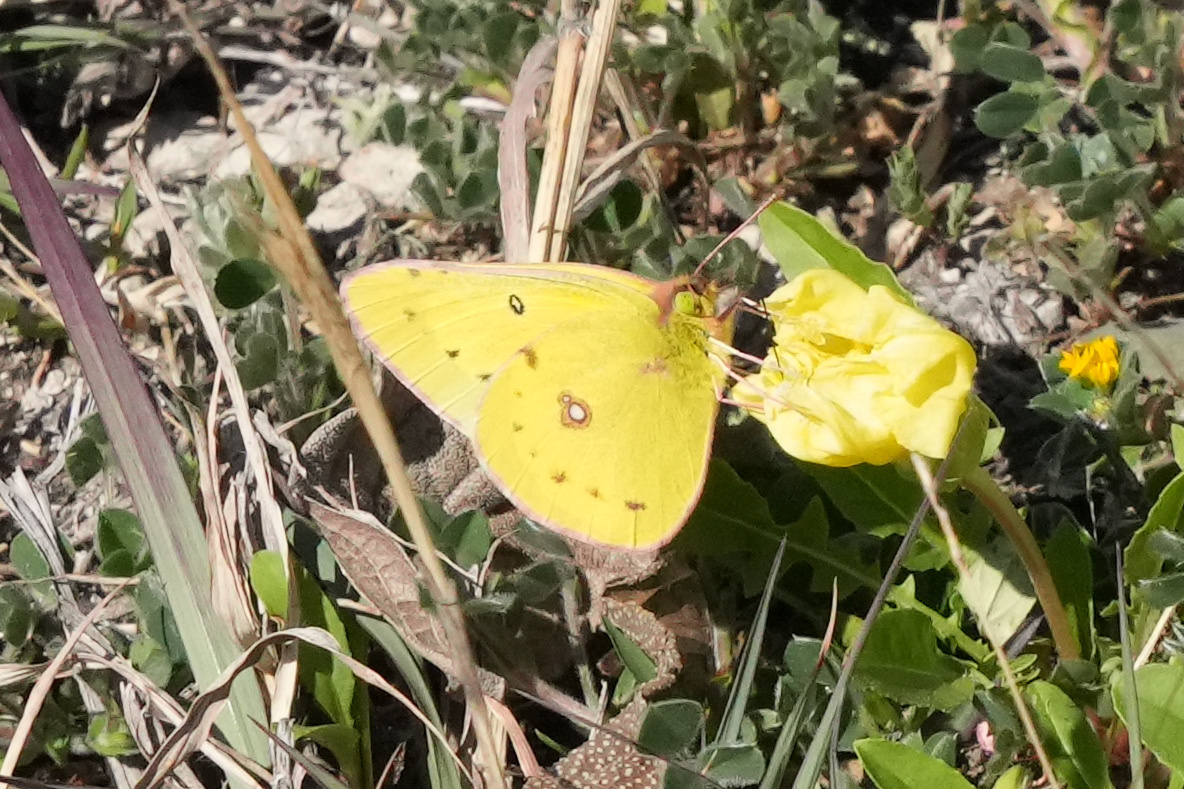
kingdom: Animalia
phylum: Arthropoda
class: Insecta
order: Lepidoptera
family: Pieridae
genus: Colias
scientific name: Colias eurytheme
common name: Alfalfa butterfly
